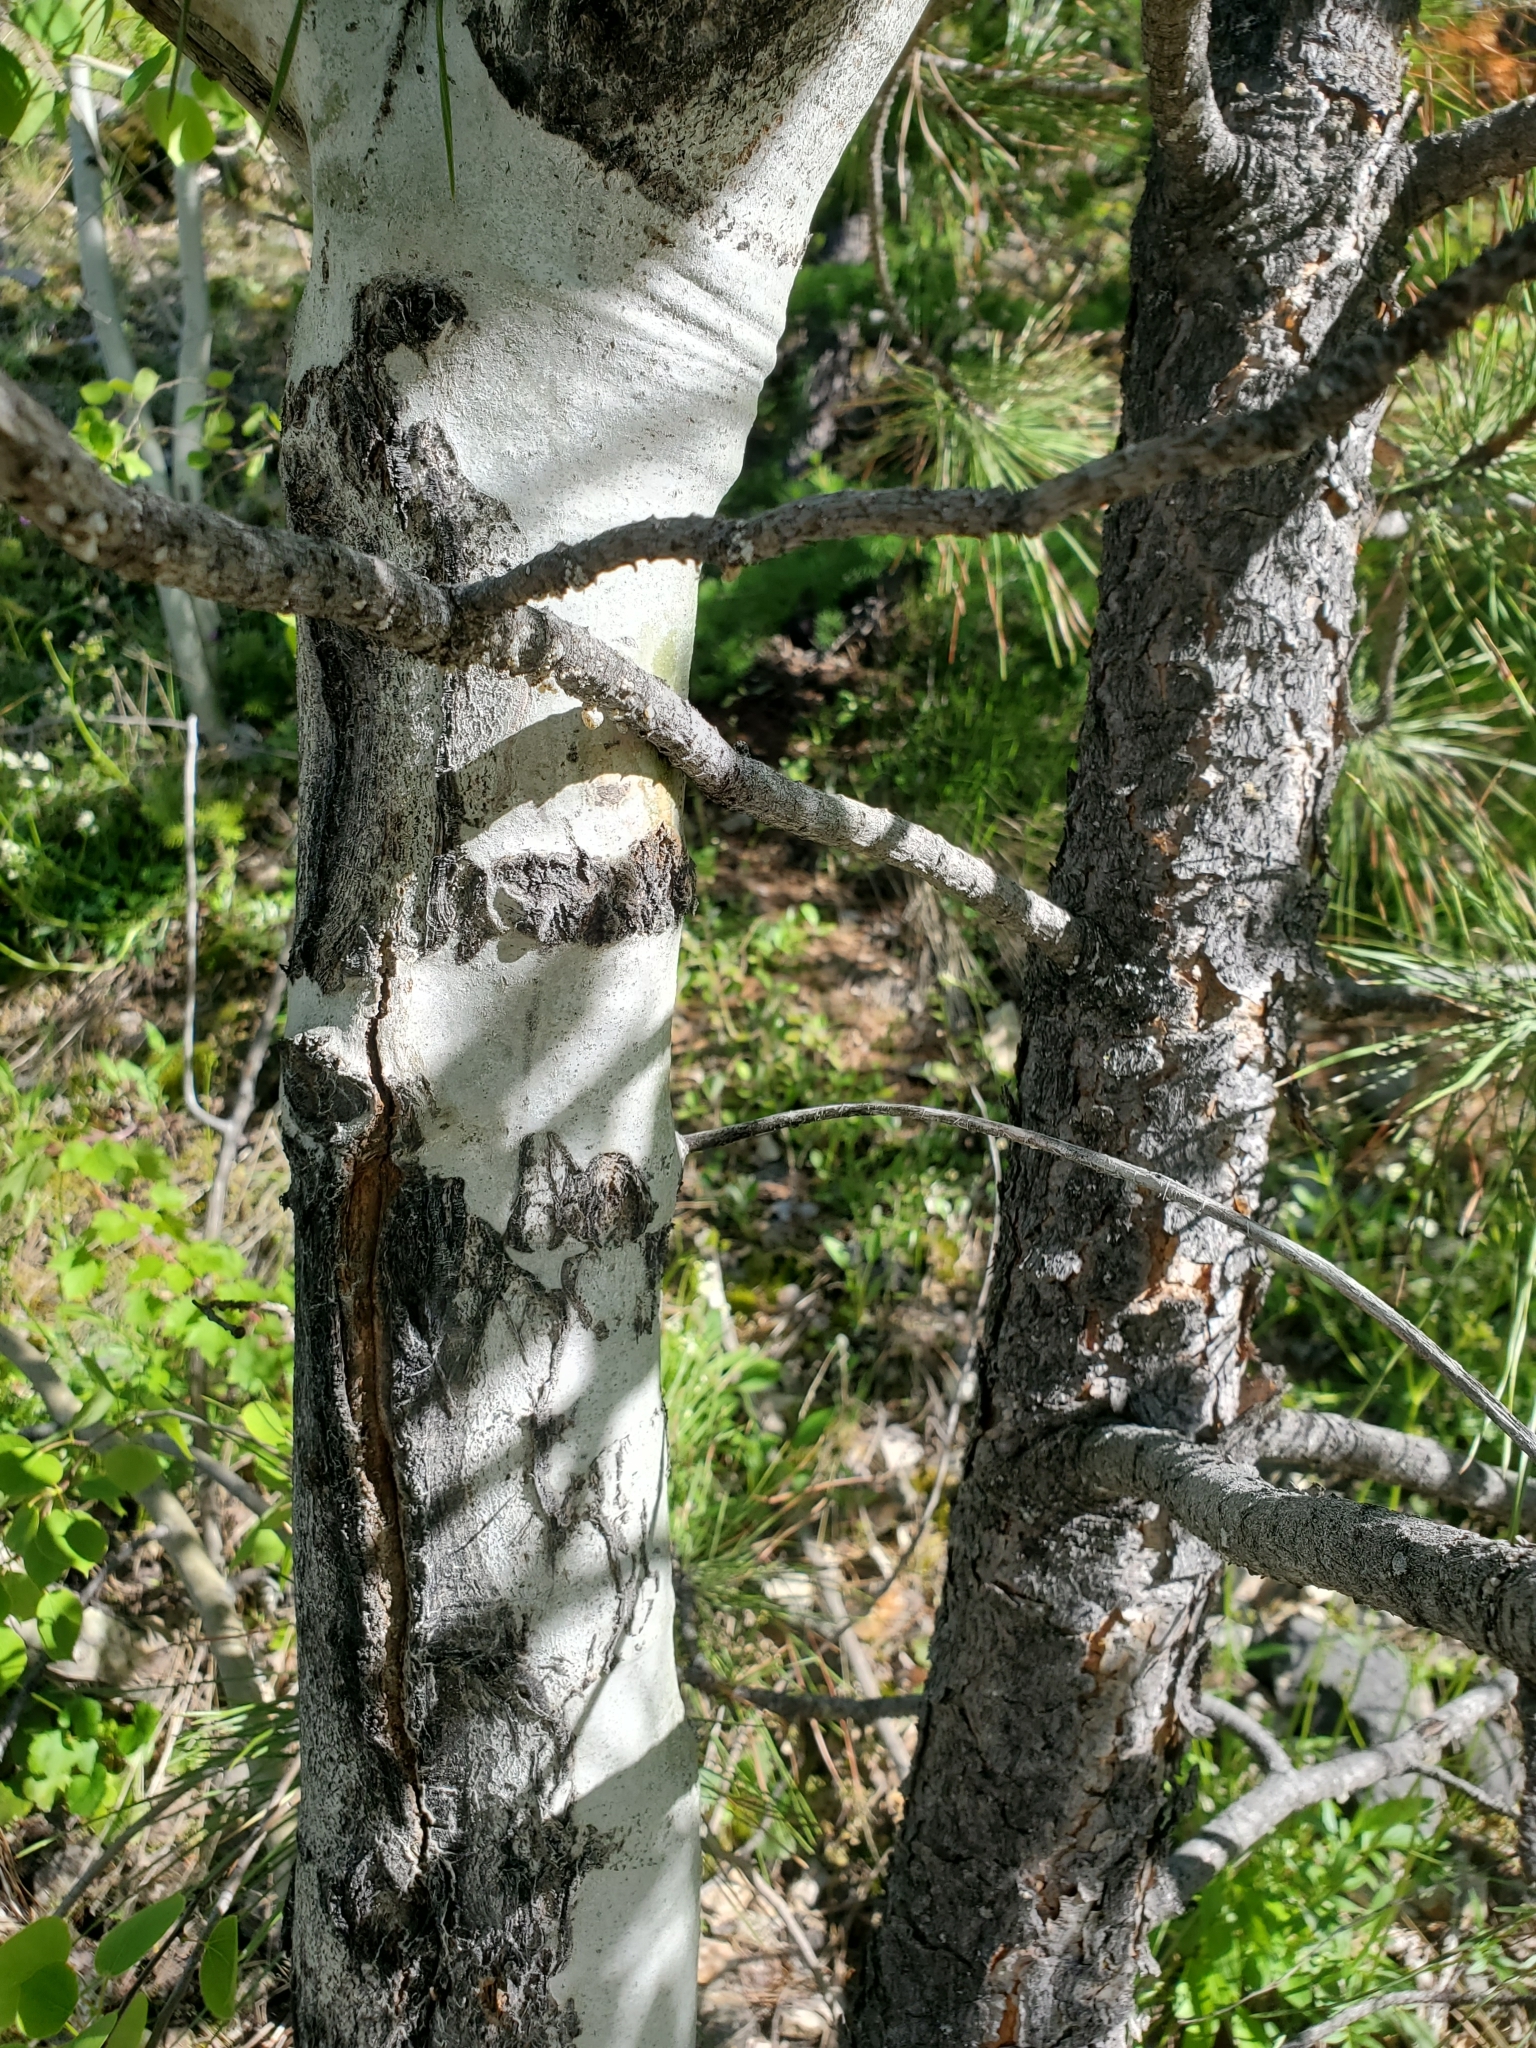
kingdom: Plantae
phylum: Tracheophyta
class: Magnoliopsida
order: Malpighiales
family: Salicaceae
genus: Populus
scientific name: Populus tremuloides
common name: Quaking aspen
